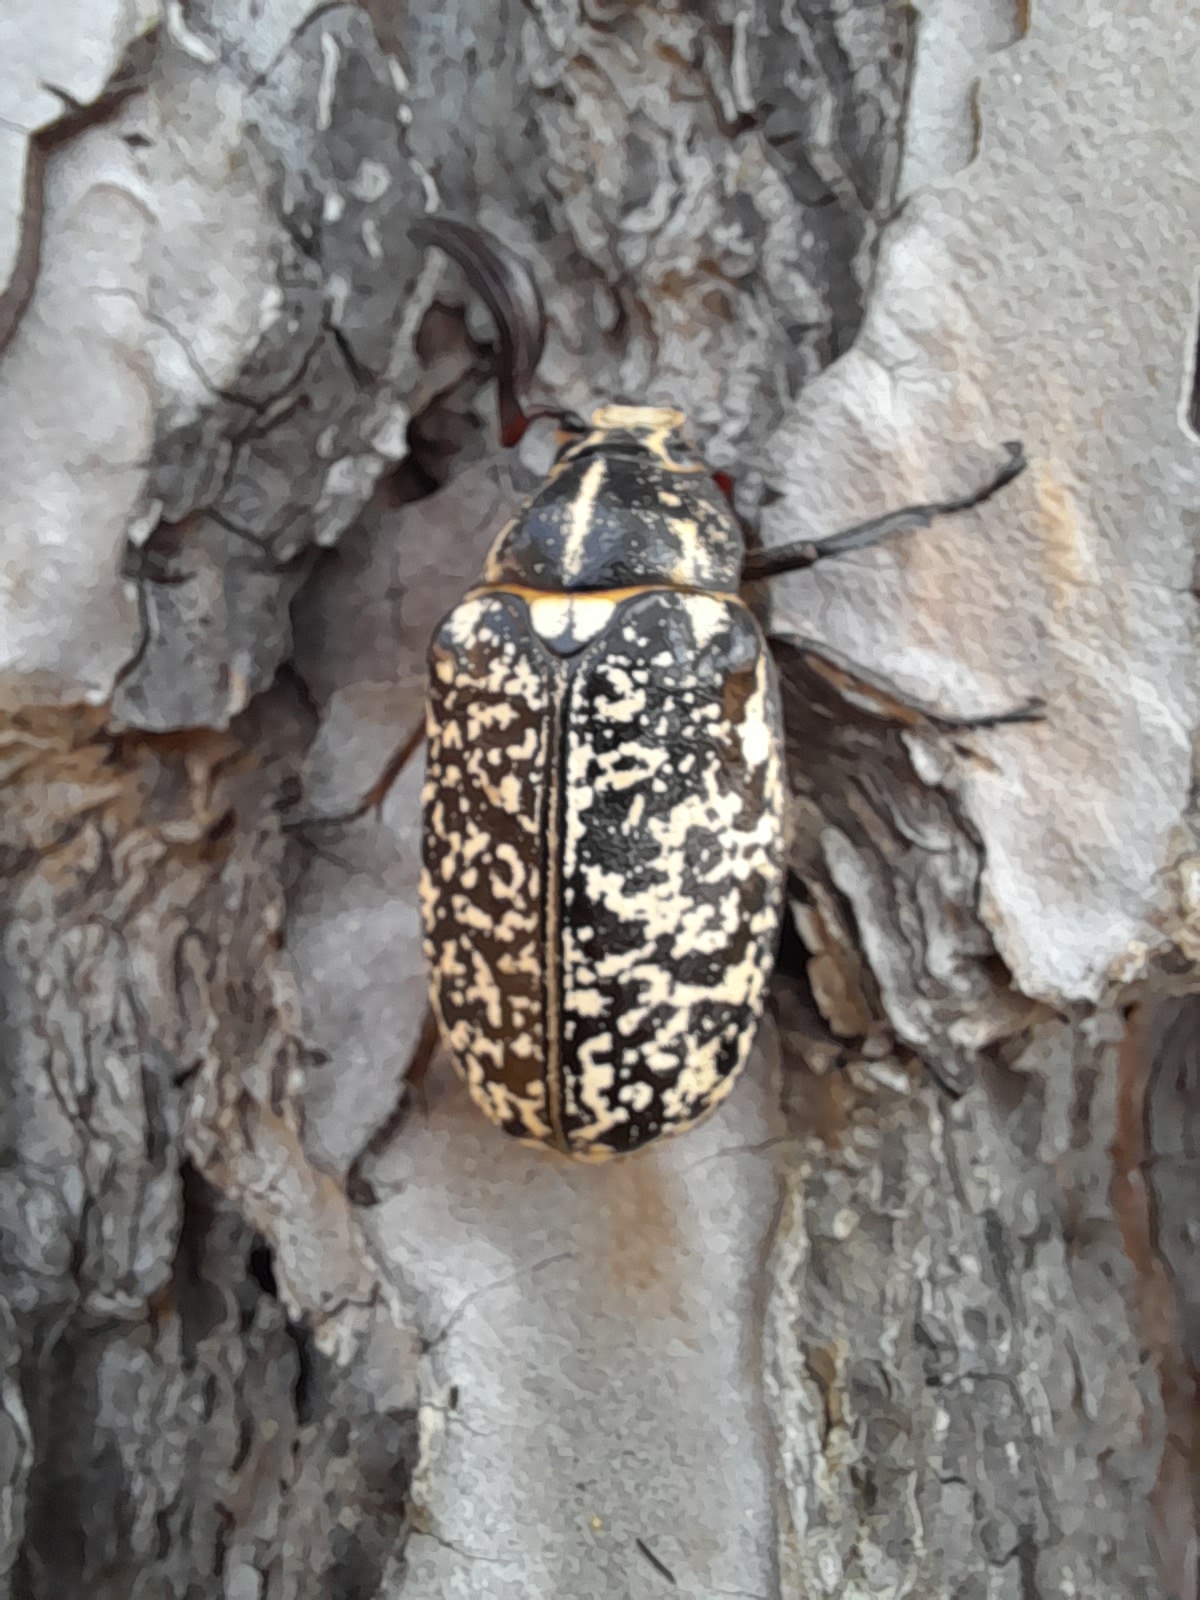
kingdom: Animalia
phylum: Arthropoda
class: Insecta
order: Coleoptera
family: Scarabaeidae
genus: Polyphylla
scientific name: Polyphylla fullo
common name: Pine chafer
